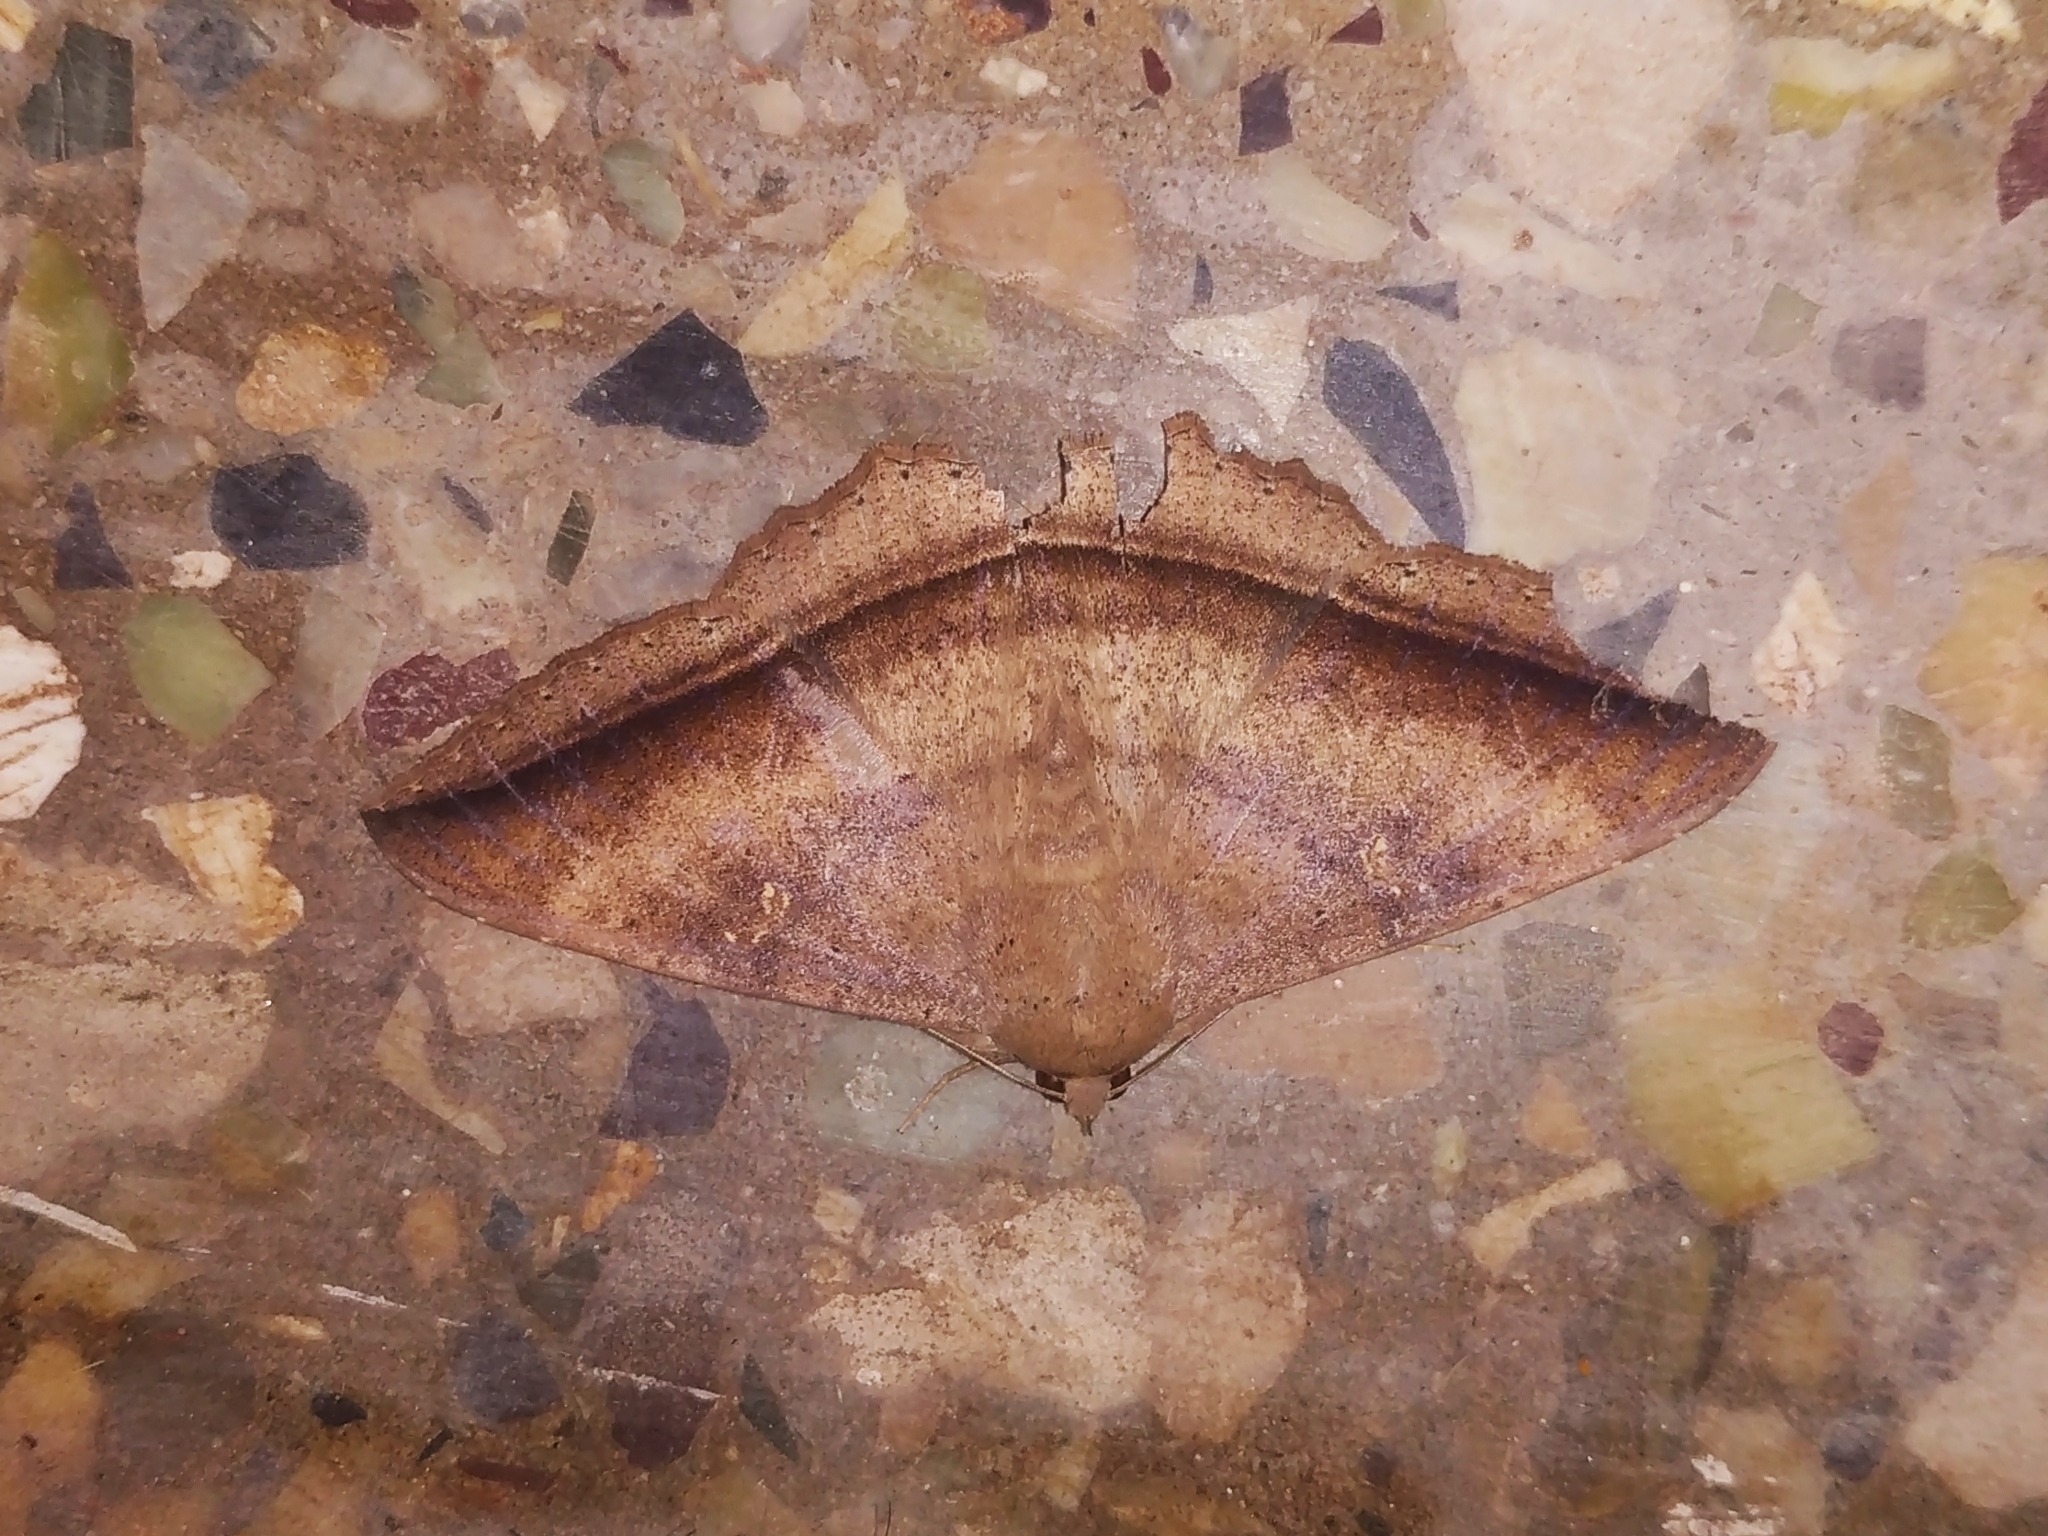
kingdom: Animalia
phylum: Arthropoda
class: Insecta
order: Lepidoptera
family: Erebidae
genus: Hulodes
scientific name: Hulodes caranea
